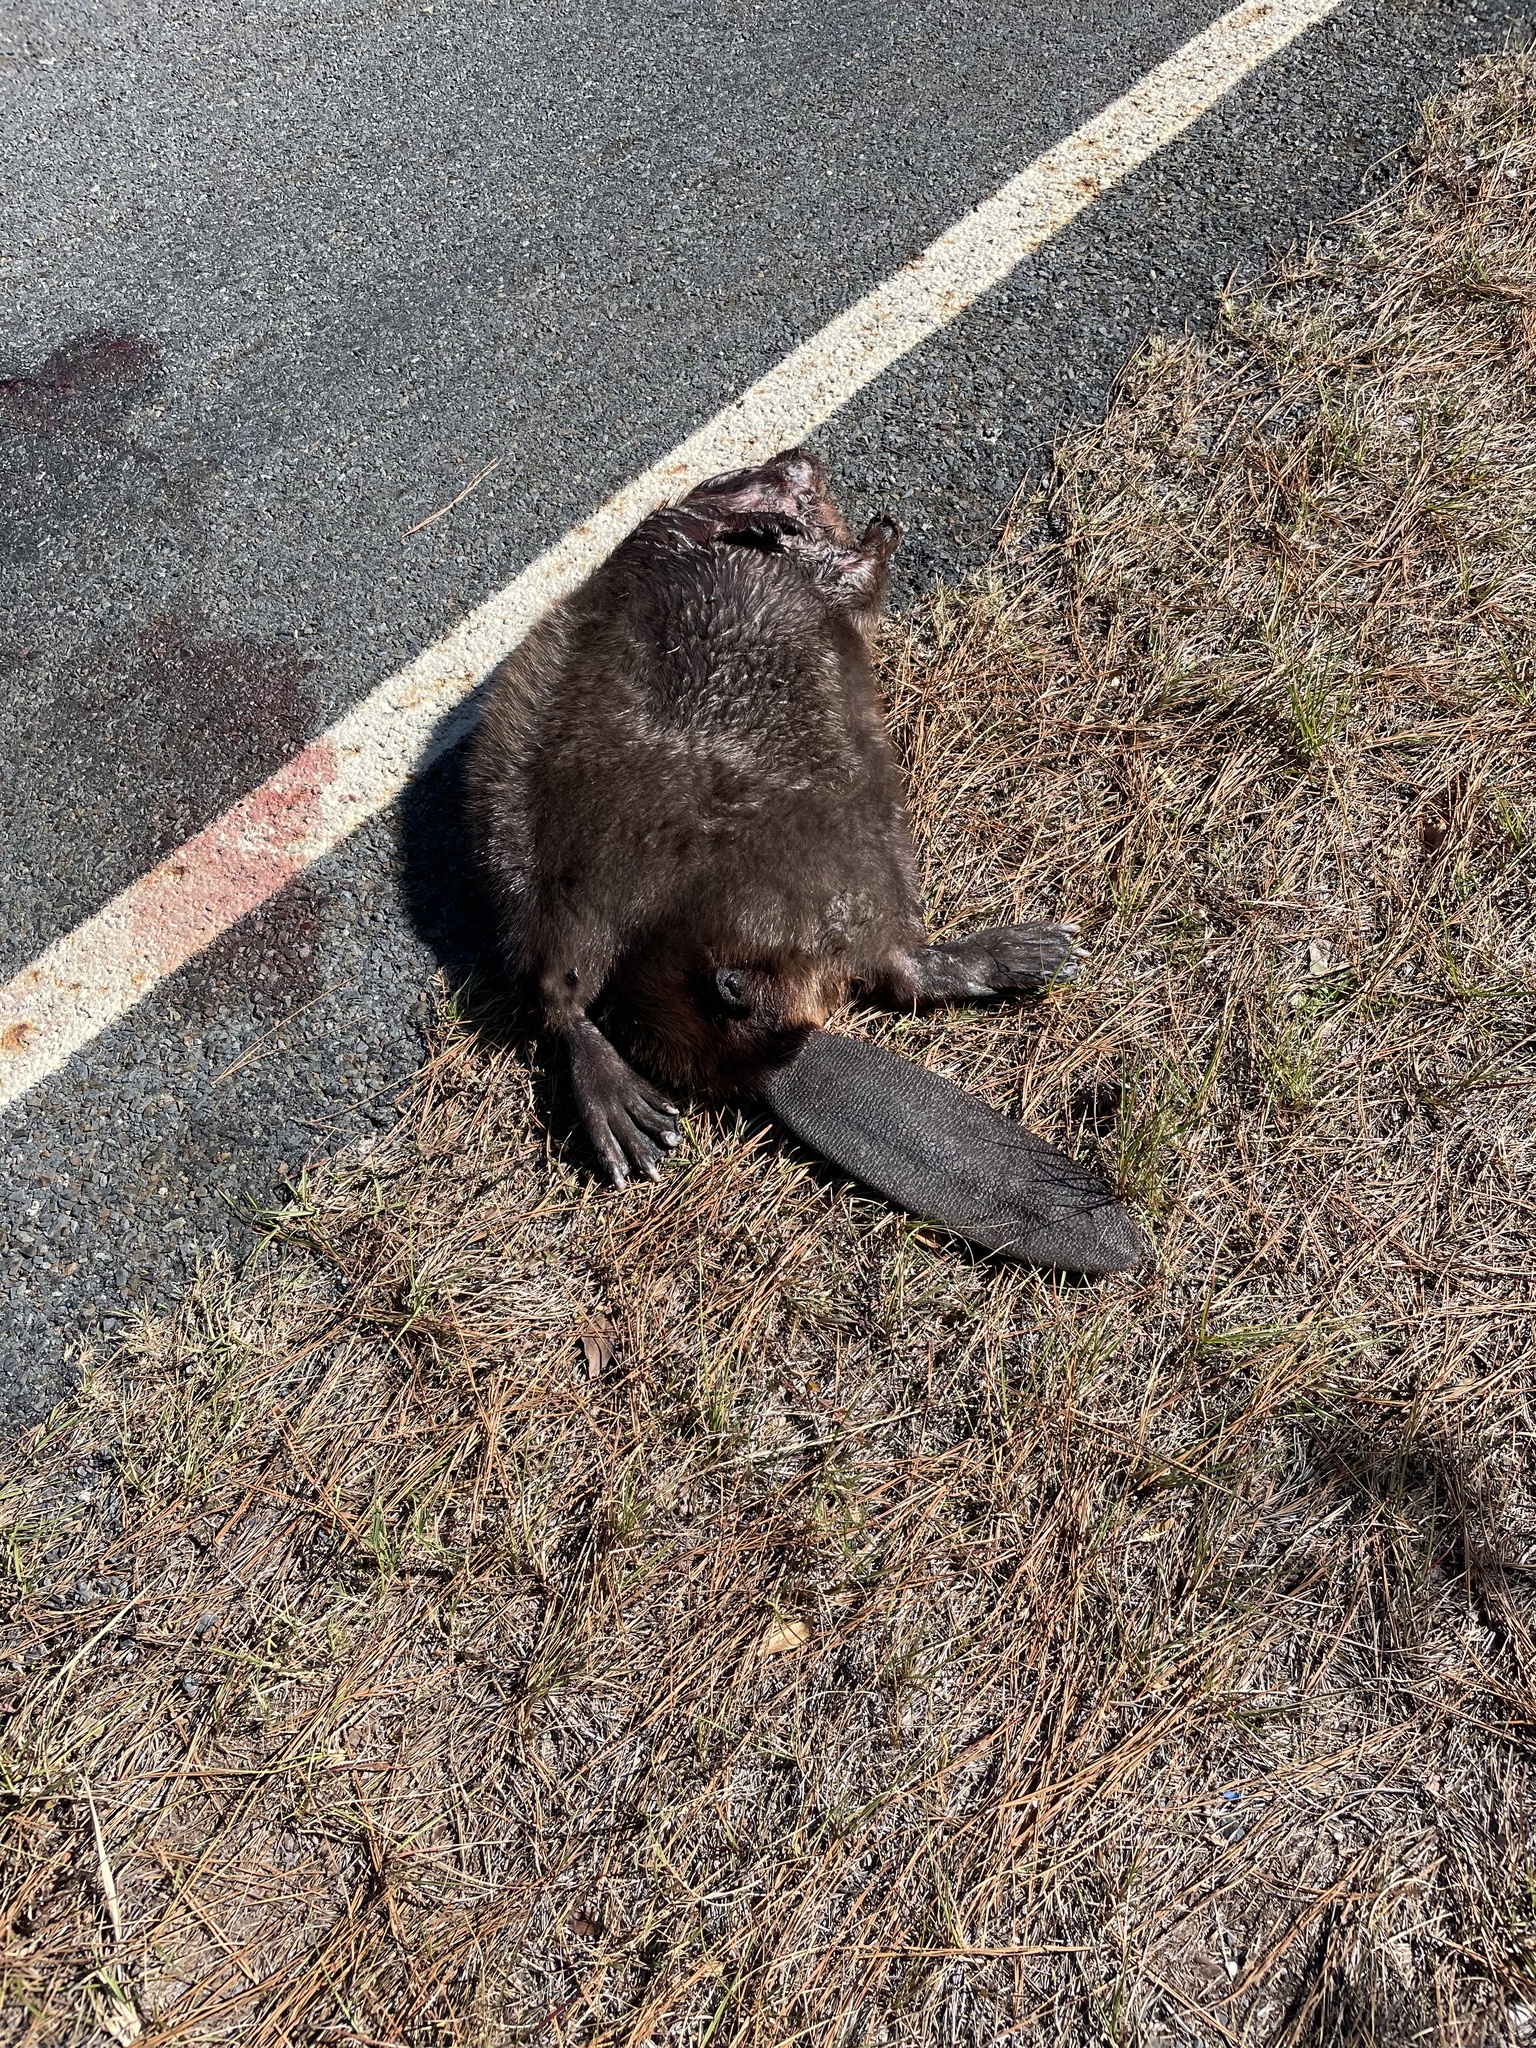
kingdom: Animalia
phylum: Chordata
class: Mammalia
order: Rodentia
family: Castoridae
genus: Castor
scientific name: Castor canadensis
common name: American beaver
